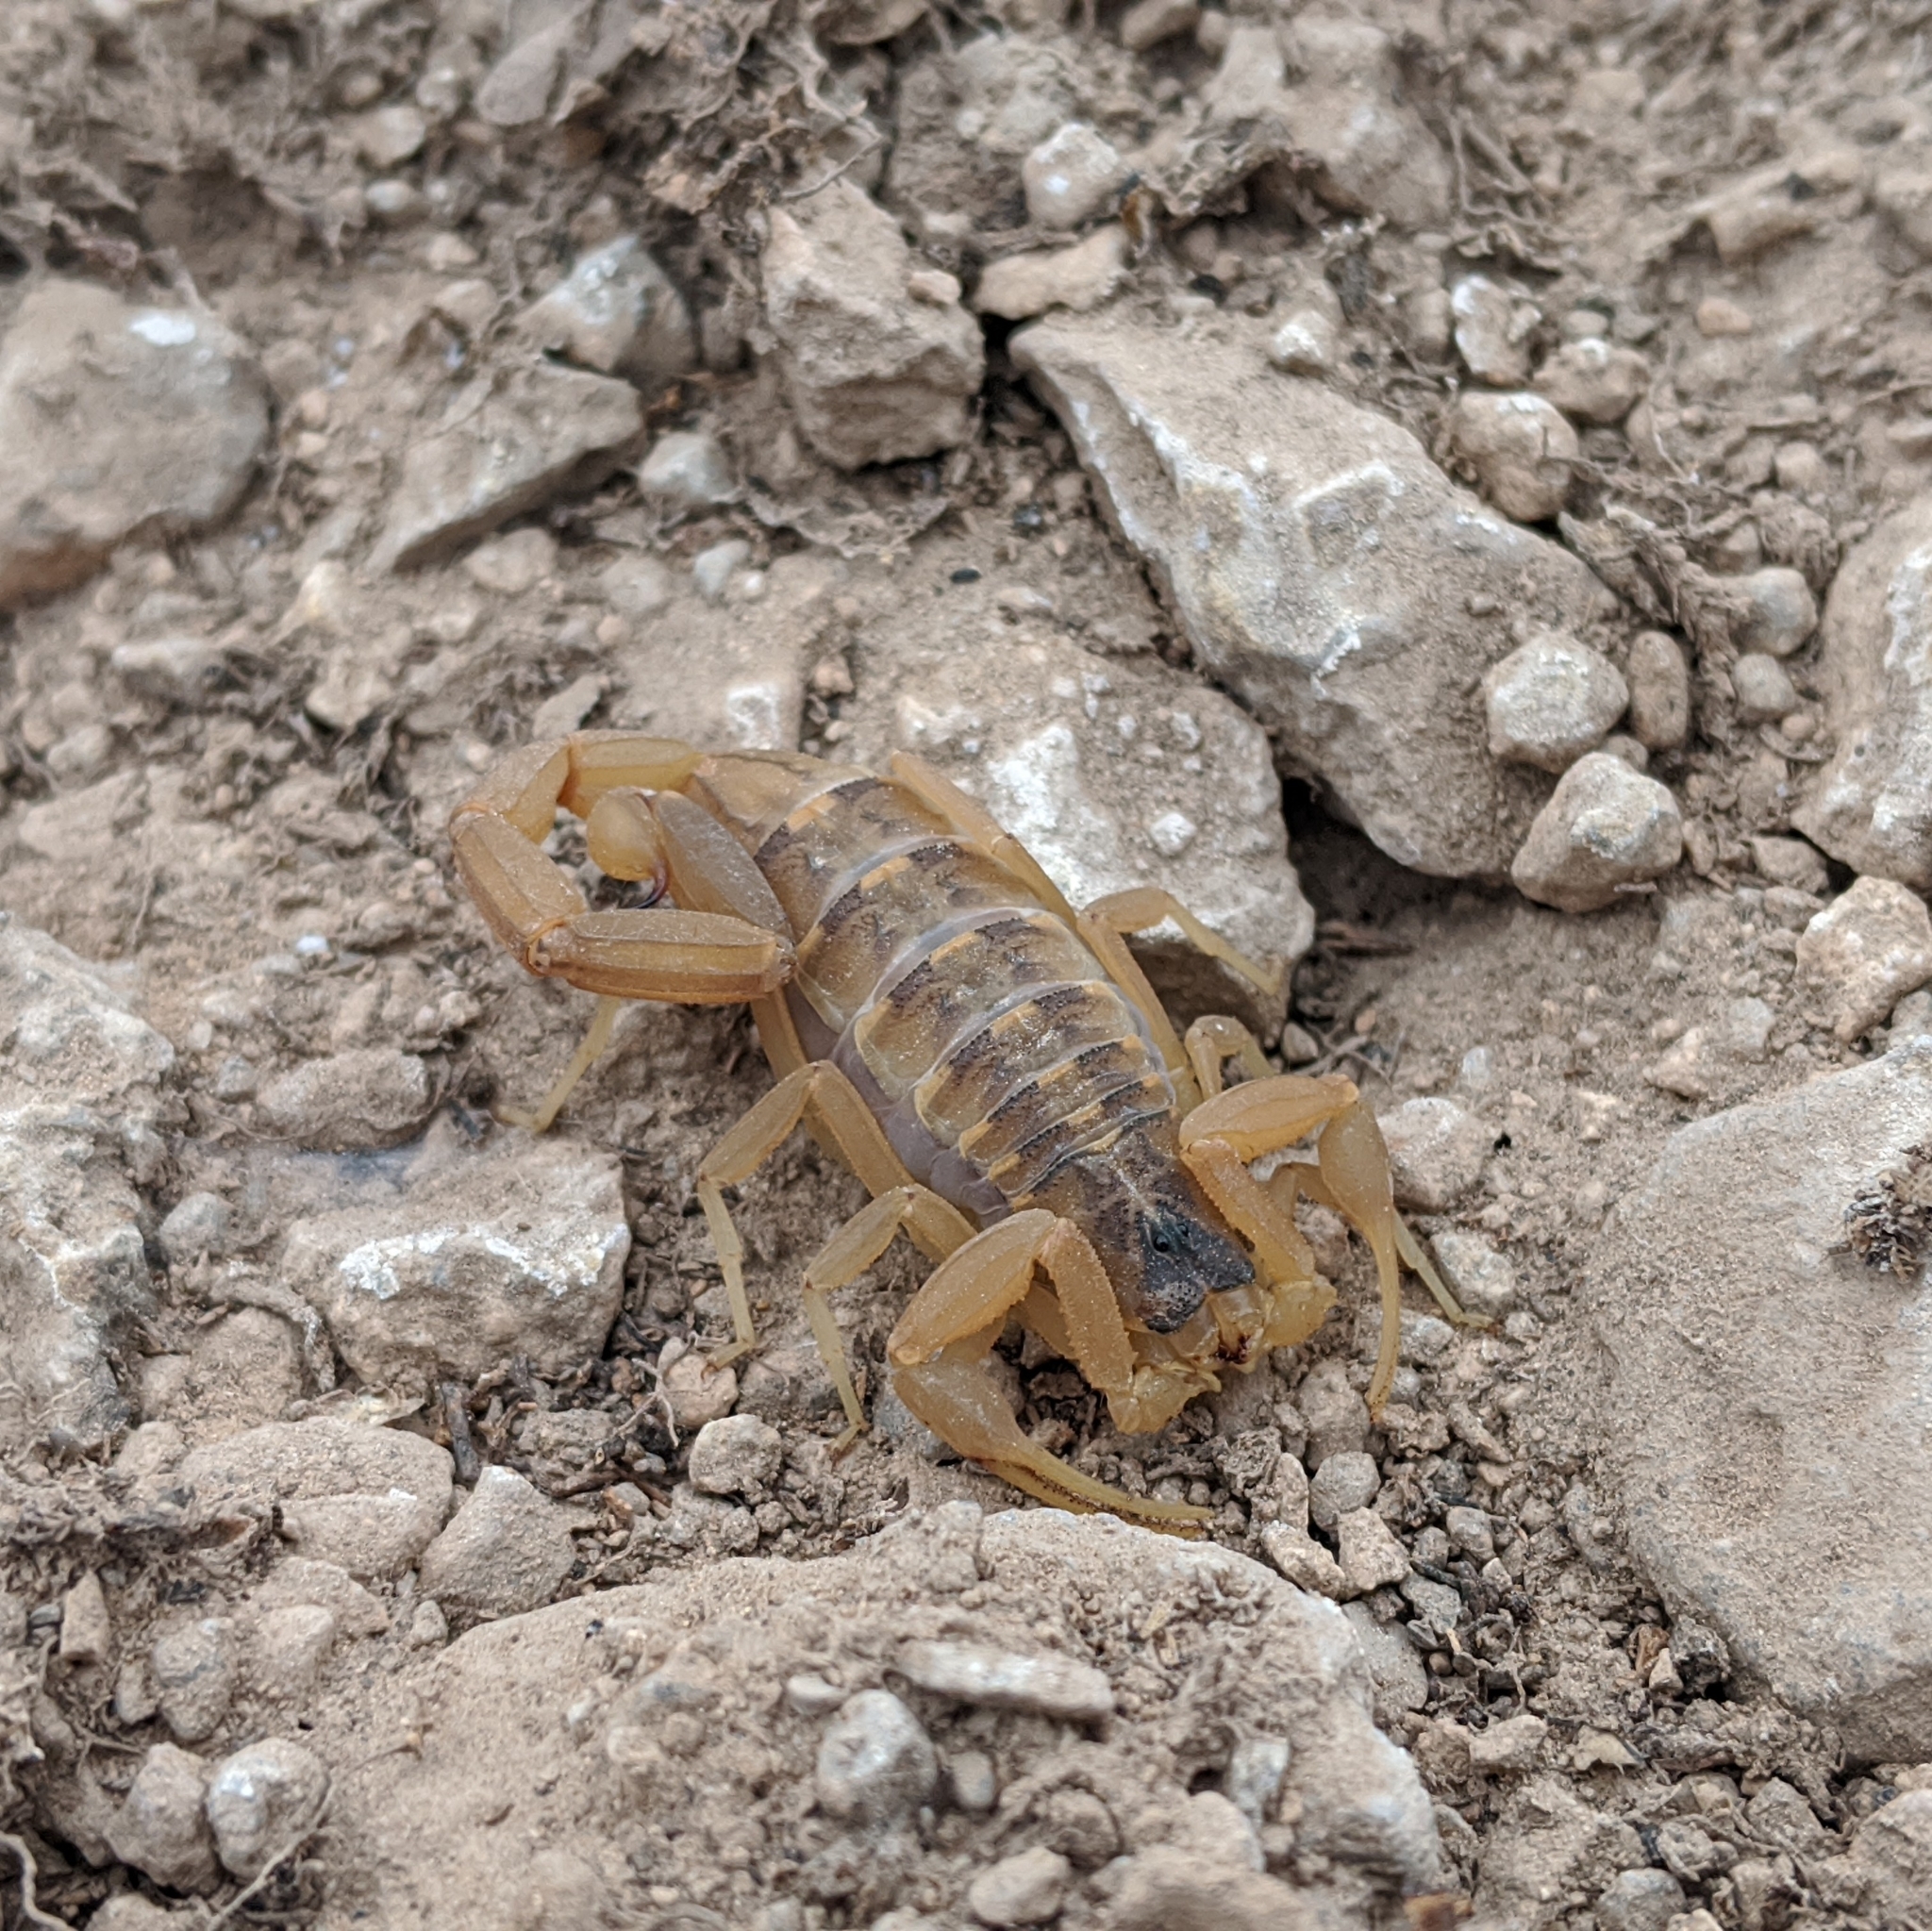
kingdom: Animalia
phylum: Arthropoda
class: Arachnida
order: Scorpiones
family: Buthidae
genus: Centruroides
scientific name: Centruroides vittatus
